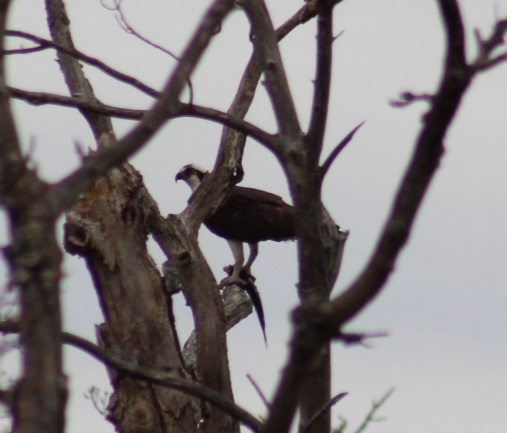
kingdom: Animalia
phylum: Chordata
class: Aves
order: Accipitriformes
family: Pandionidae
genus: Pandion
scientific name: Pandion haliaetus
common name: Osprey
